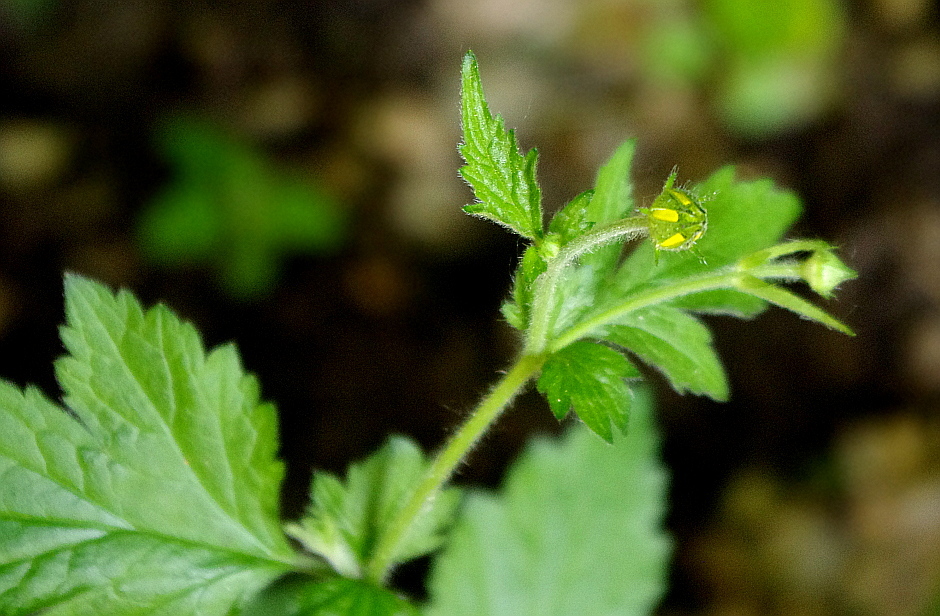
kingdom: Plantae
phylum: Tracheophyta
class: Magnoliopsida
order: Rosales
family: Rosaceae
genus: Geum
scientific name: Geum urbanum
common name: Wood avens
